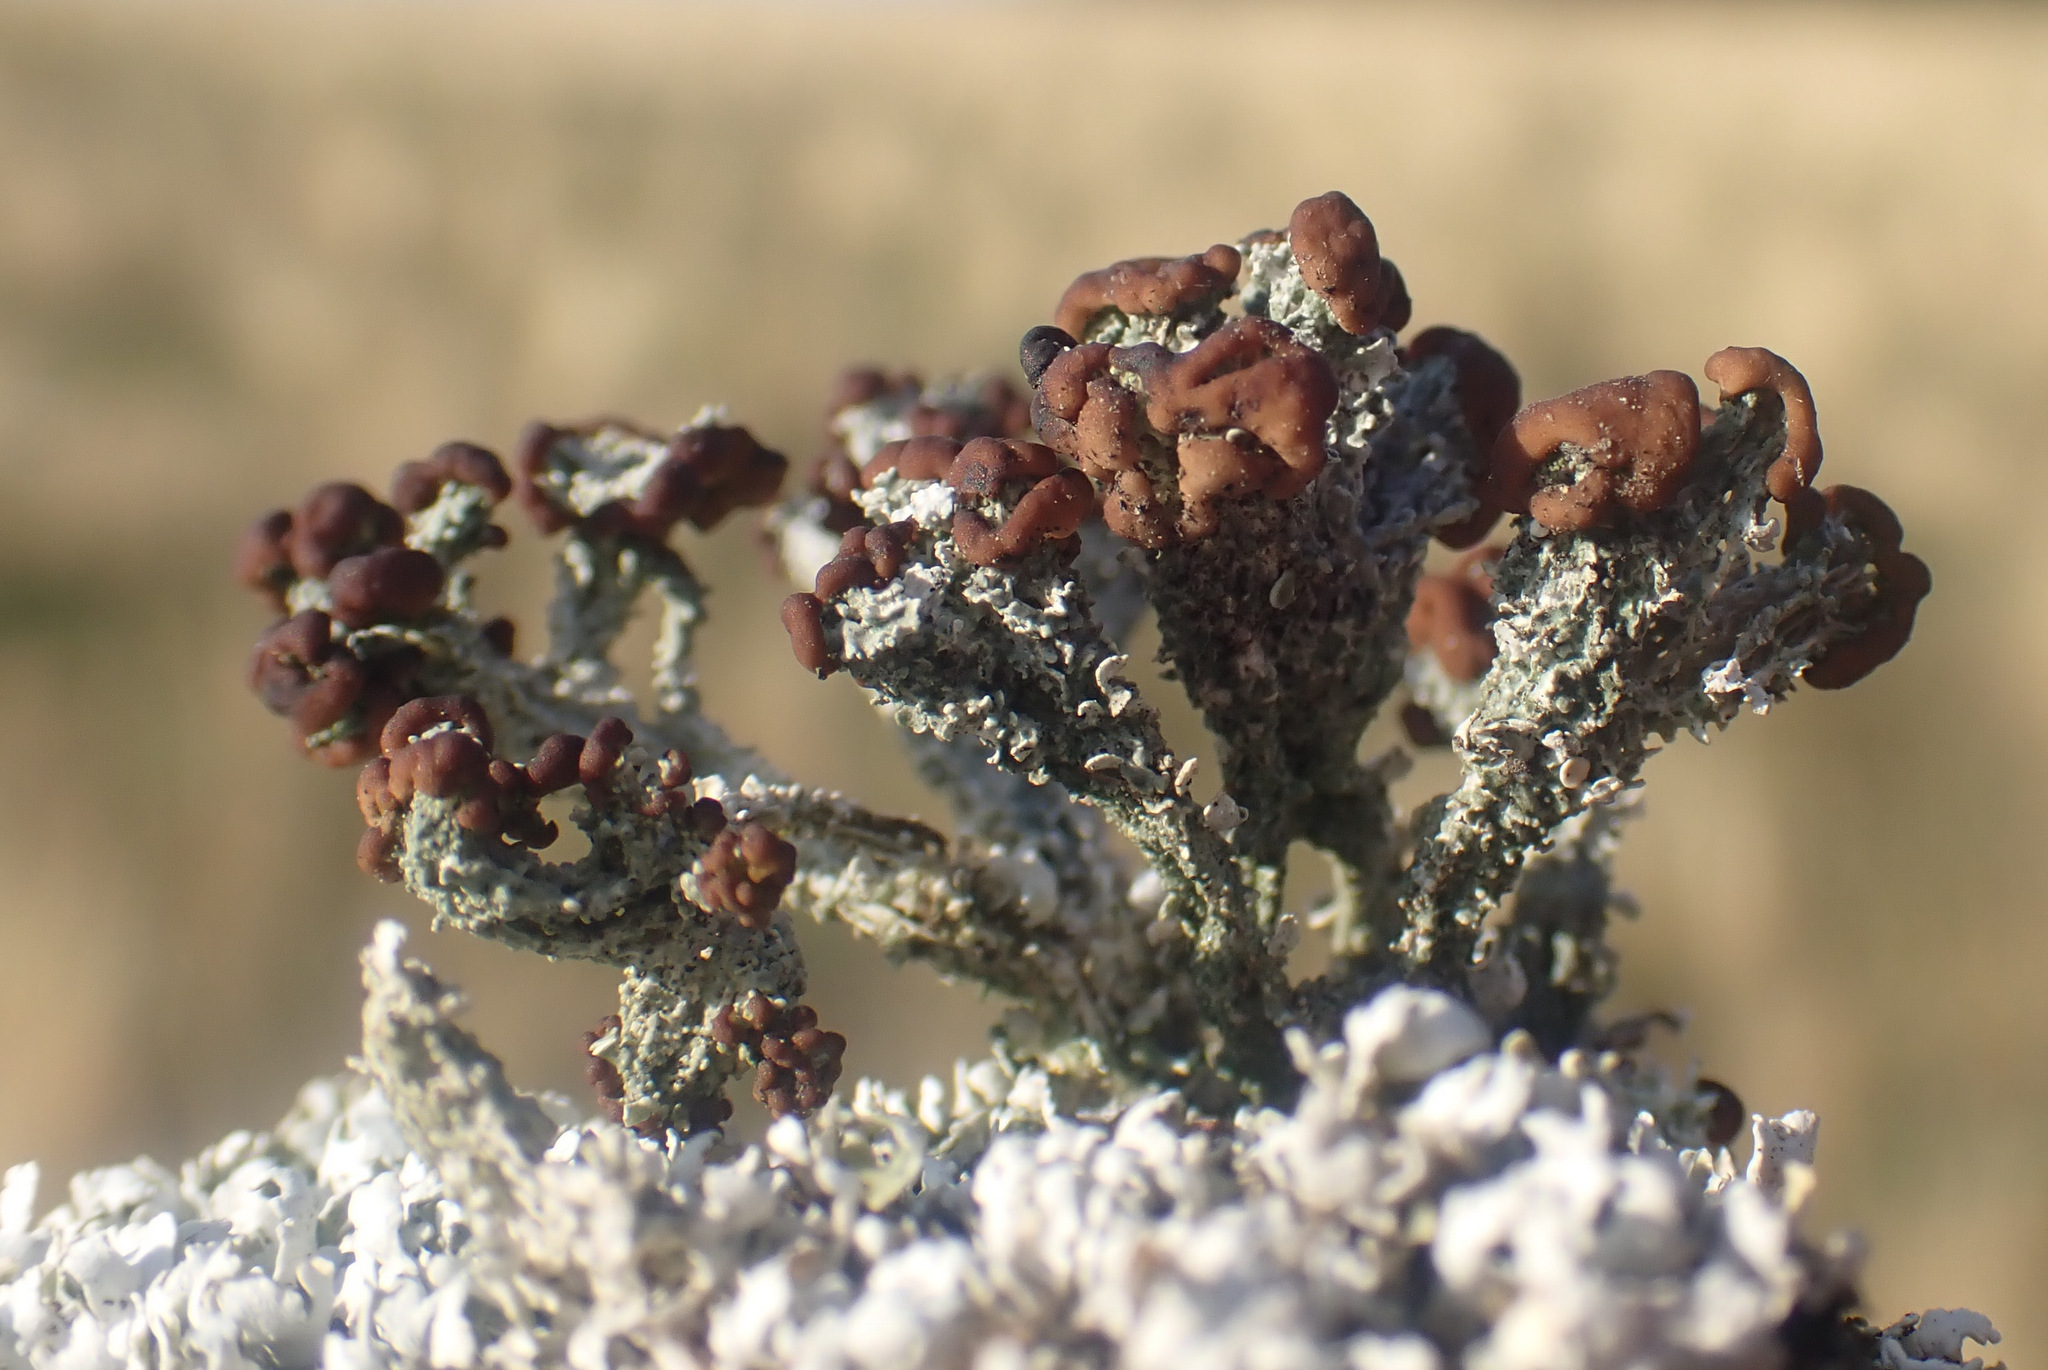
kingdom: Fungi
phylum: Ascomycota
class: Lecanoromycetes
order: Lecanorales
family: Cladoniaceae
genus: Cladonia
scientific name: Cladonia cariosa
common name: Split-peg lichen
